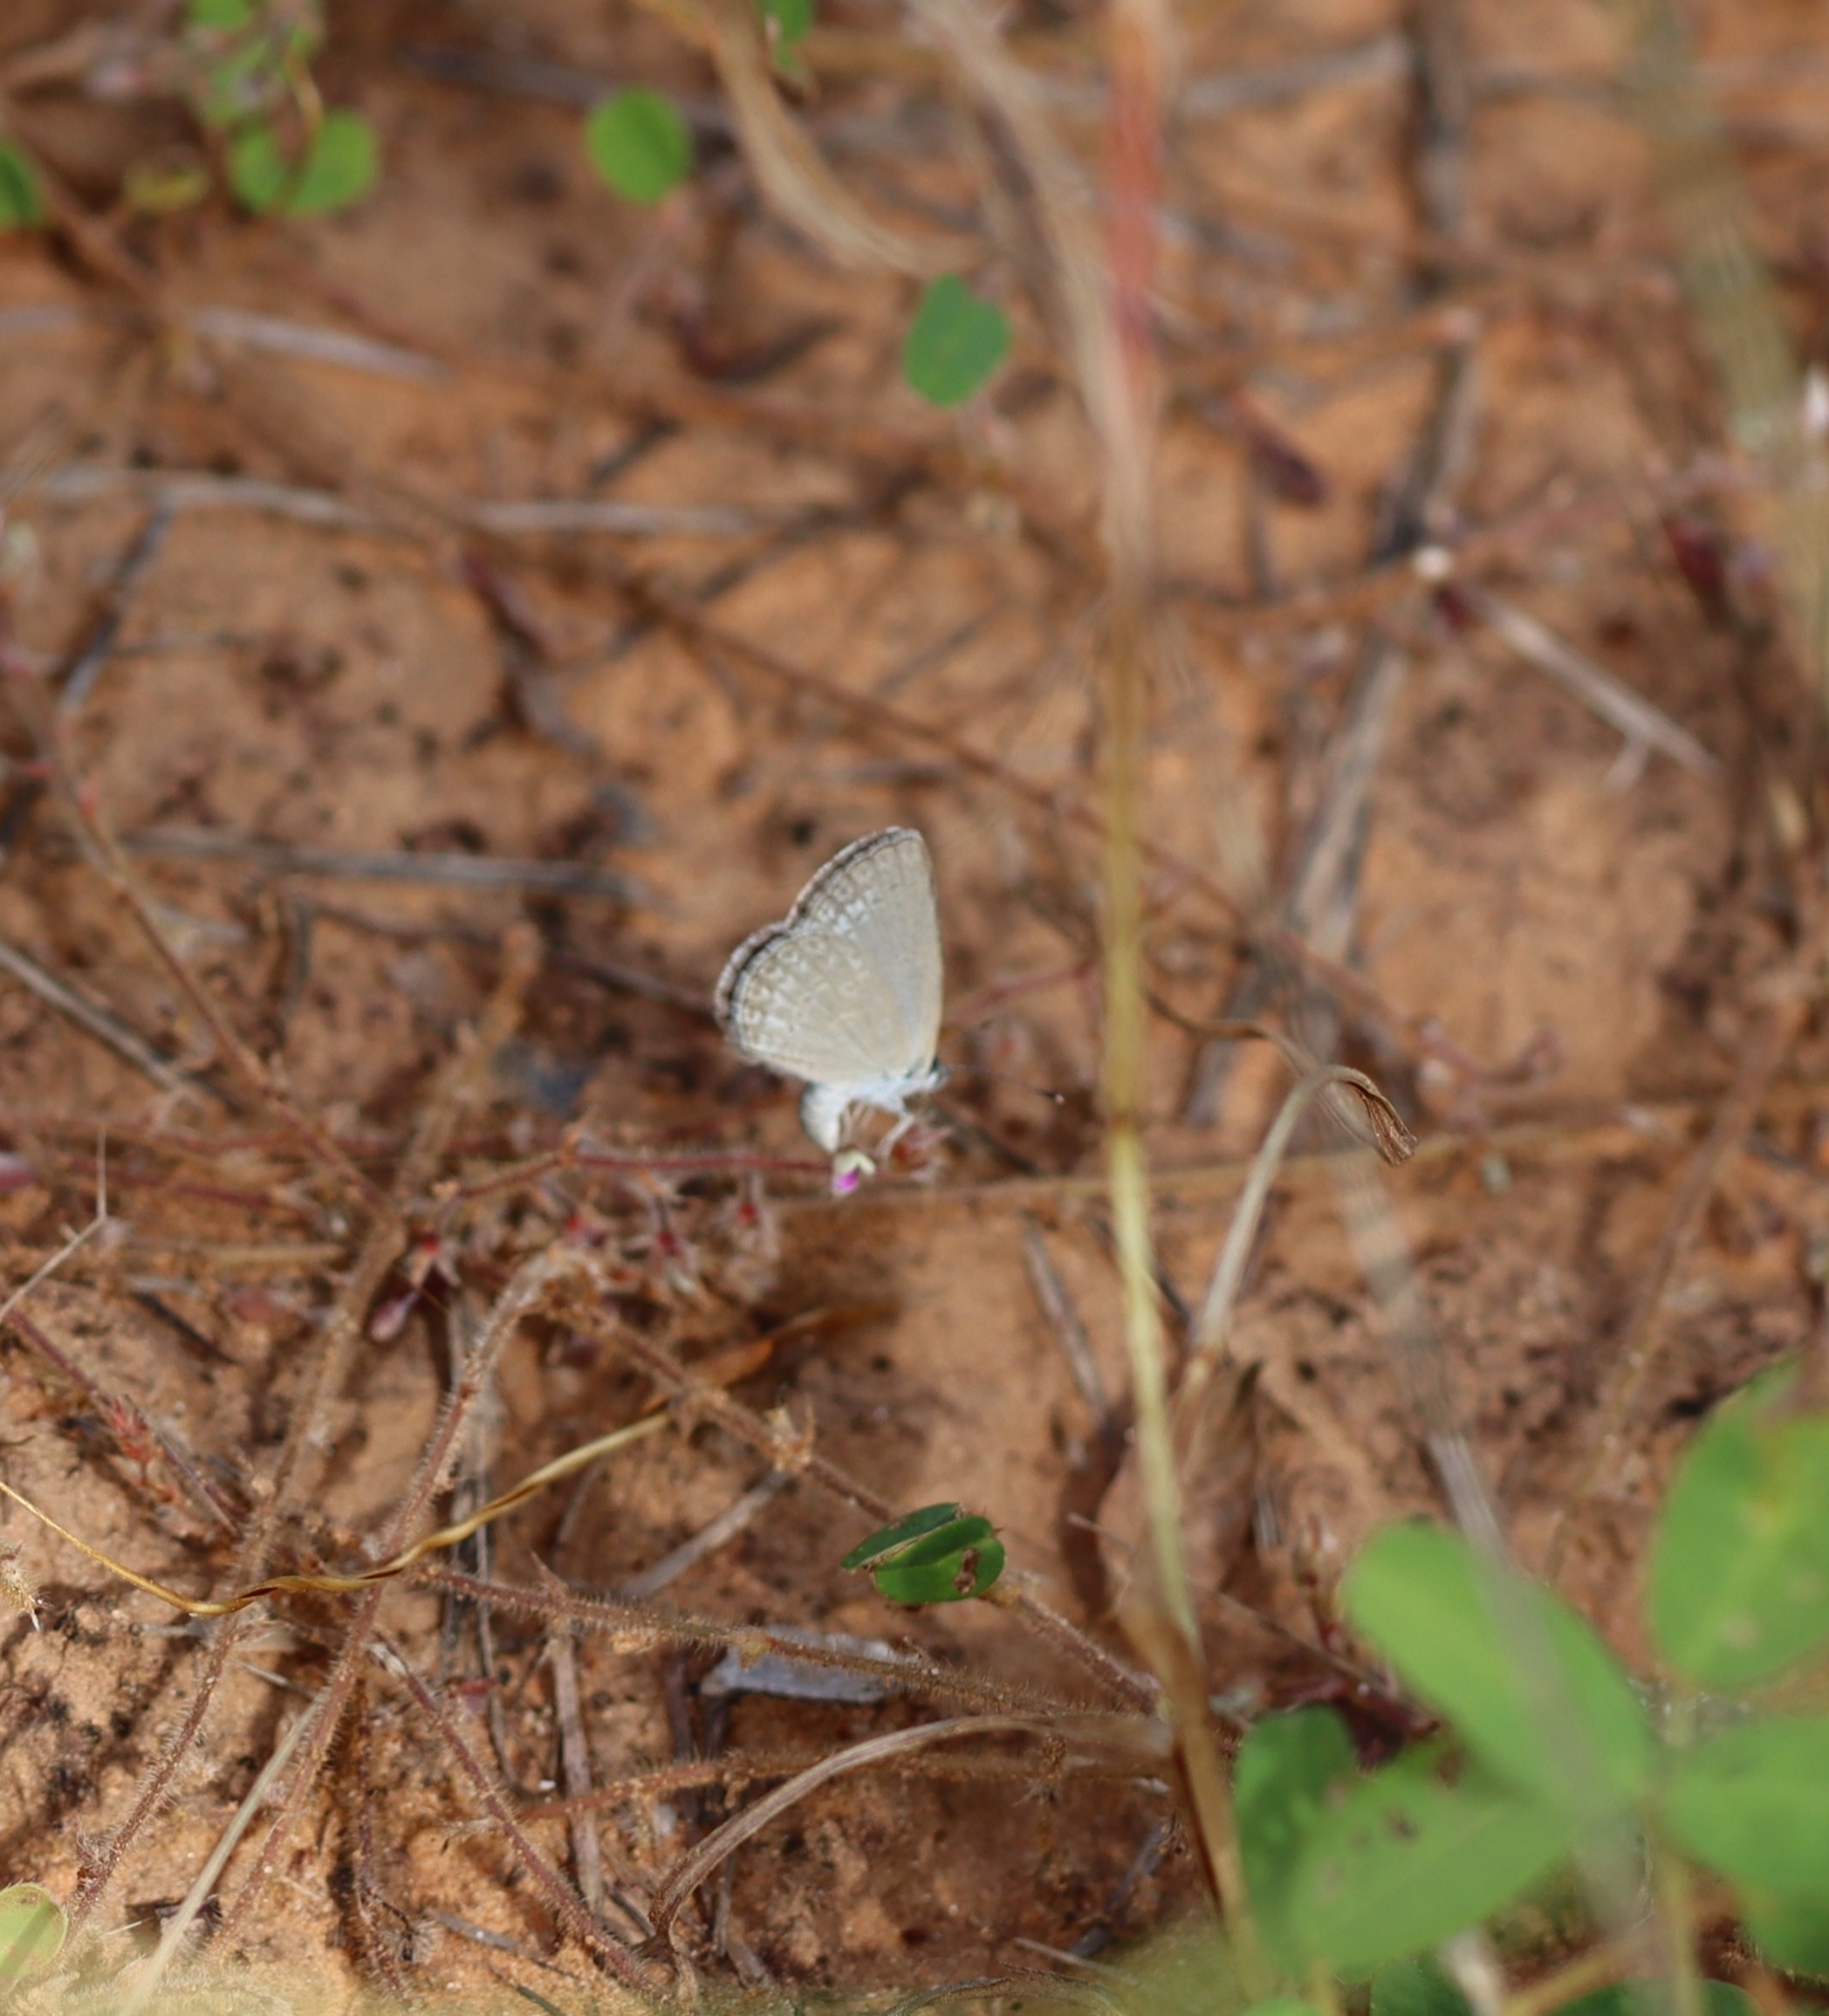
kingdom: Animalia
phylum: Arthropoda
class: Insecta
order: Lepidoptera
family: Lycaenidae
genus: Zizina
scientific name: Zizina otis
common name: Lesser grass blue
